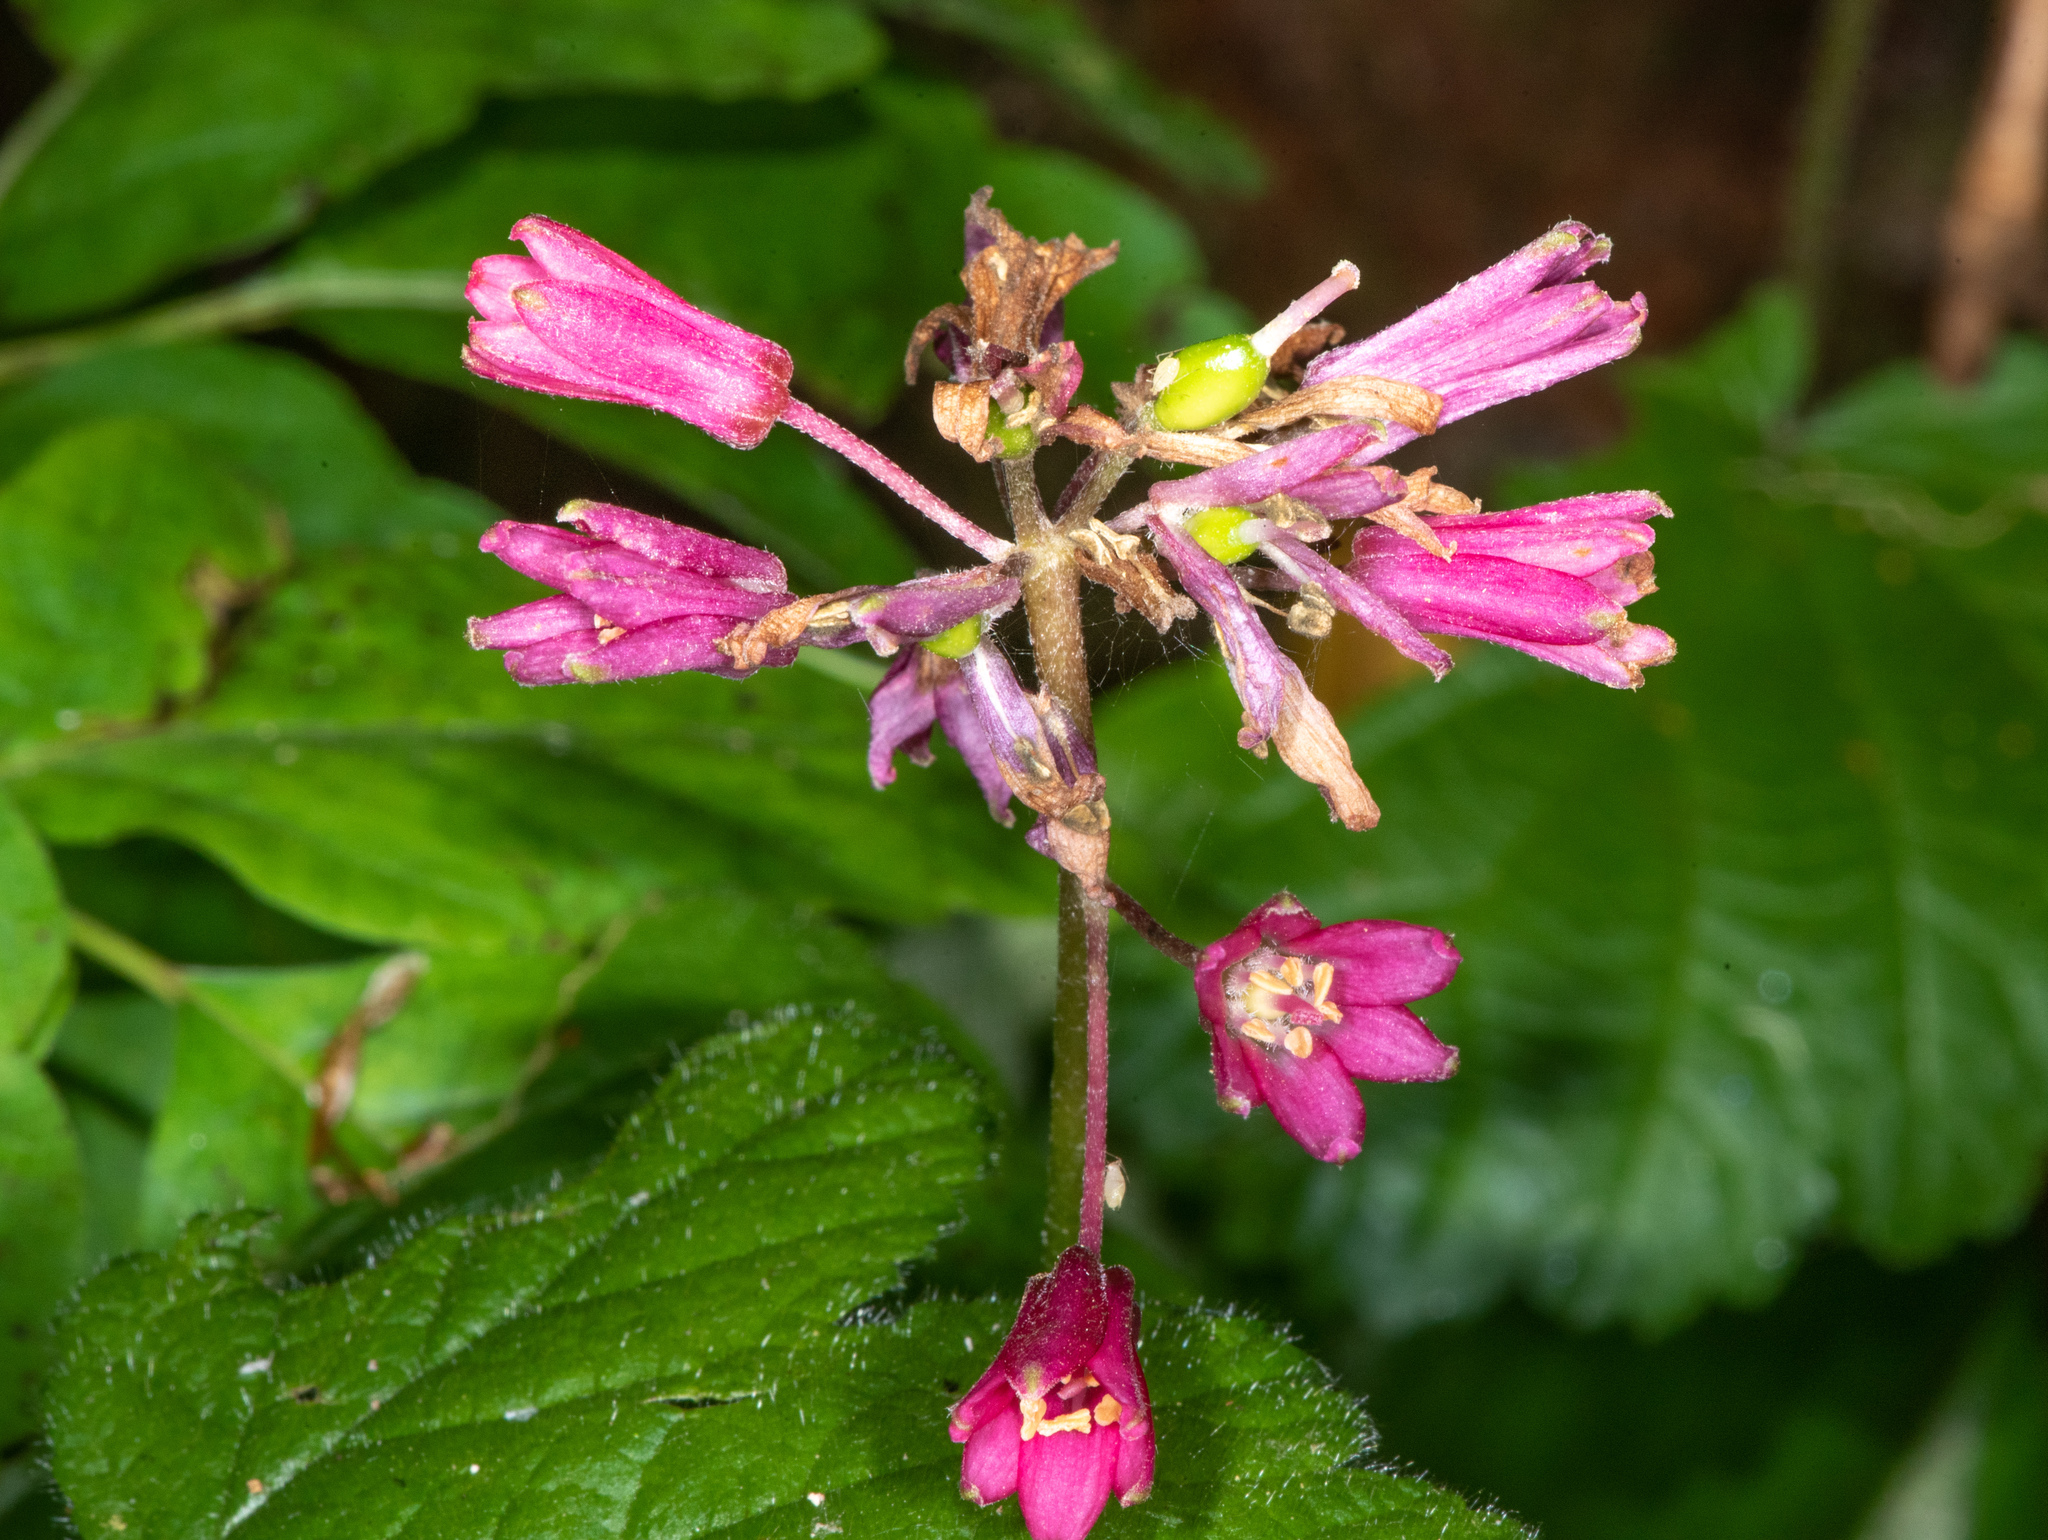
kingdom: Plantae
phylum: Tracheophyta
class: Liliopsida
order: Liliales
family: Liliaceae
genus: Clintonia
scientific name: Clintonia andrewsiana
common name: Red clintonia
